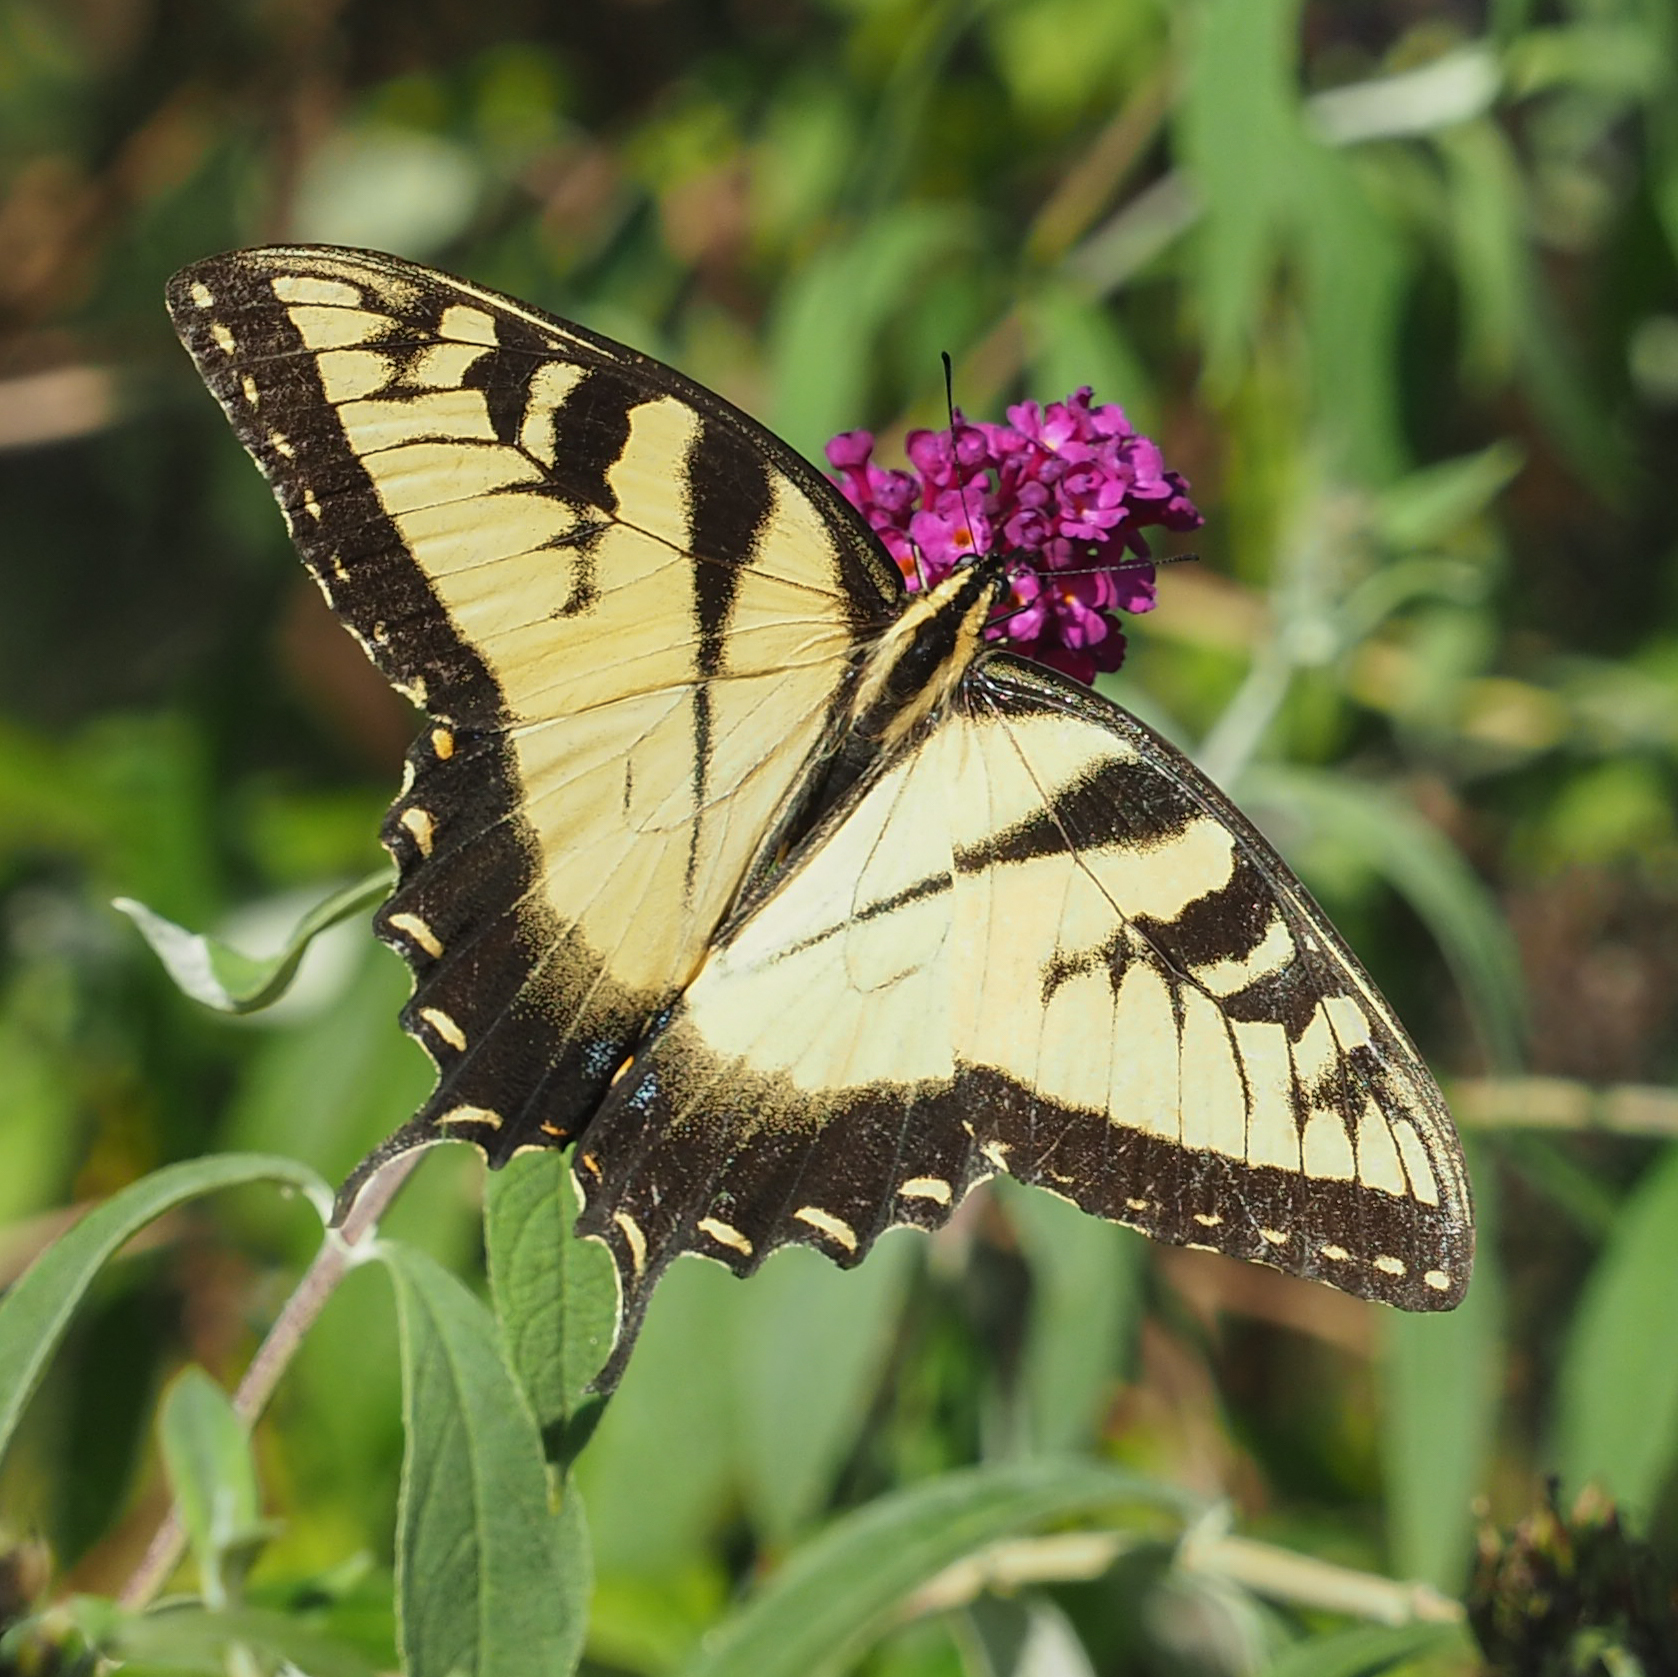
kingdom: Animalia
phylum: Arthropoda
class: Insecta
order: Lepidoptera
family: Papilionidae
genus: Papilio
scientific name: Papilio glaucus
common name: Tiger swallowtail
